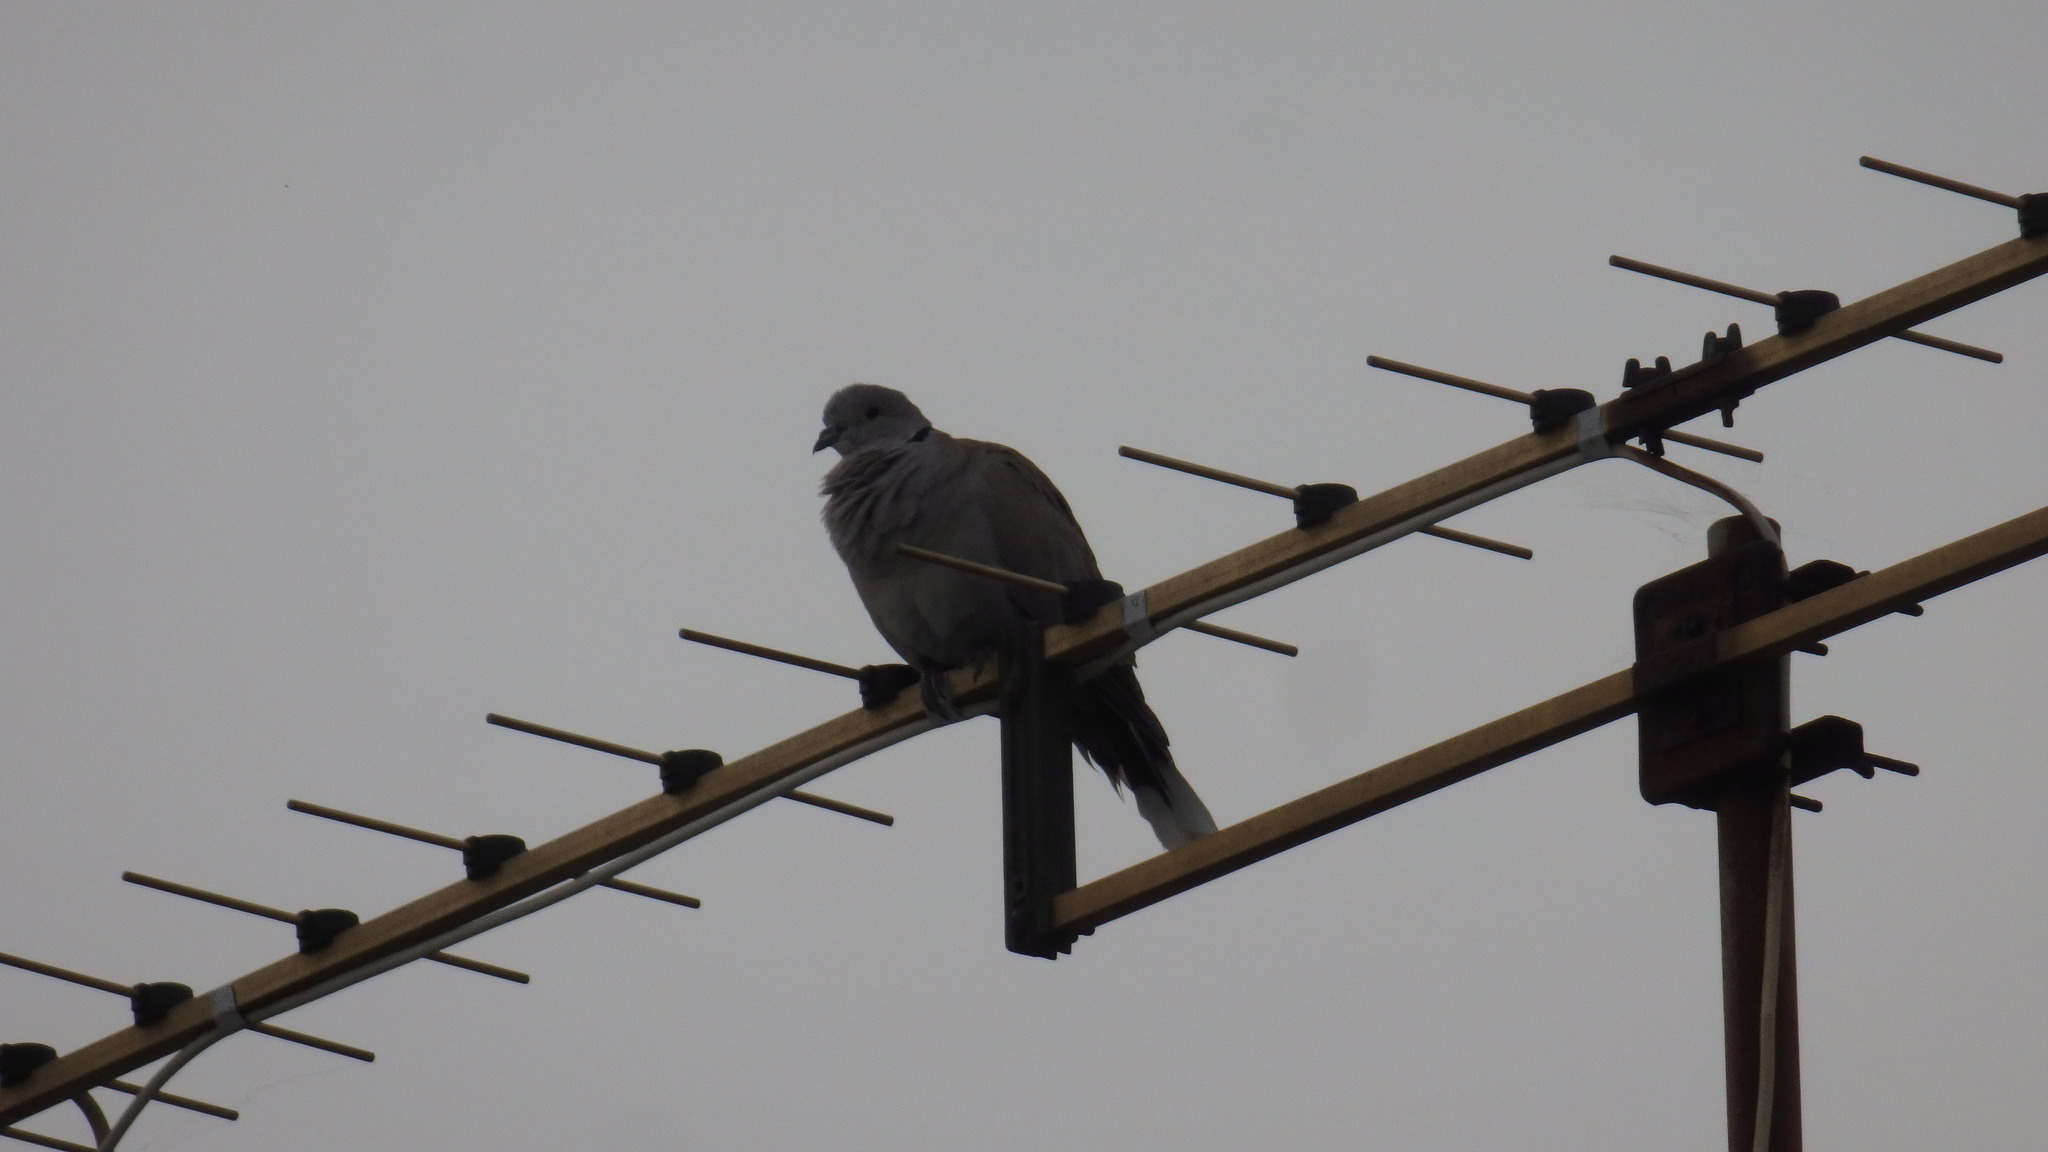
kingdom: Animalia
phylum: Chordata
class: Aves
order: Columbiformes
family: Columbidae
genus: Streptopelia
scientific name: Streptopelia decaocto
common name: Eurasian collared dove
